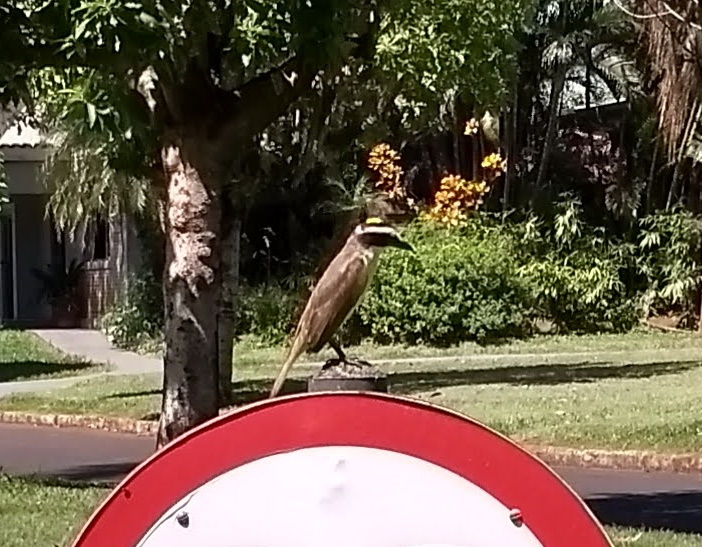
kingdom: Animalia
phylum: Chordata
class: Aves
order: Passeriformes
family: Tyrannidae
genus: Pitangus
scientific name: Pitangus sulphuratus
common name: Great kiskadee
